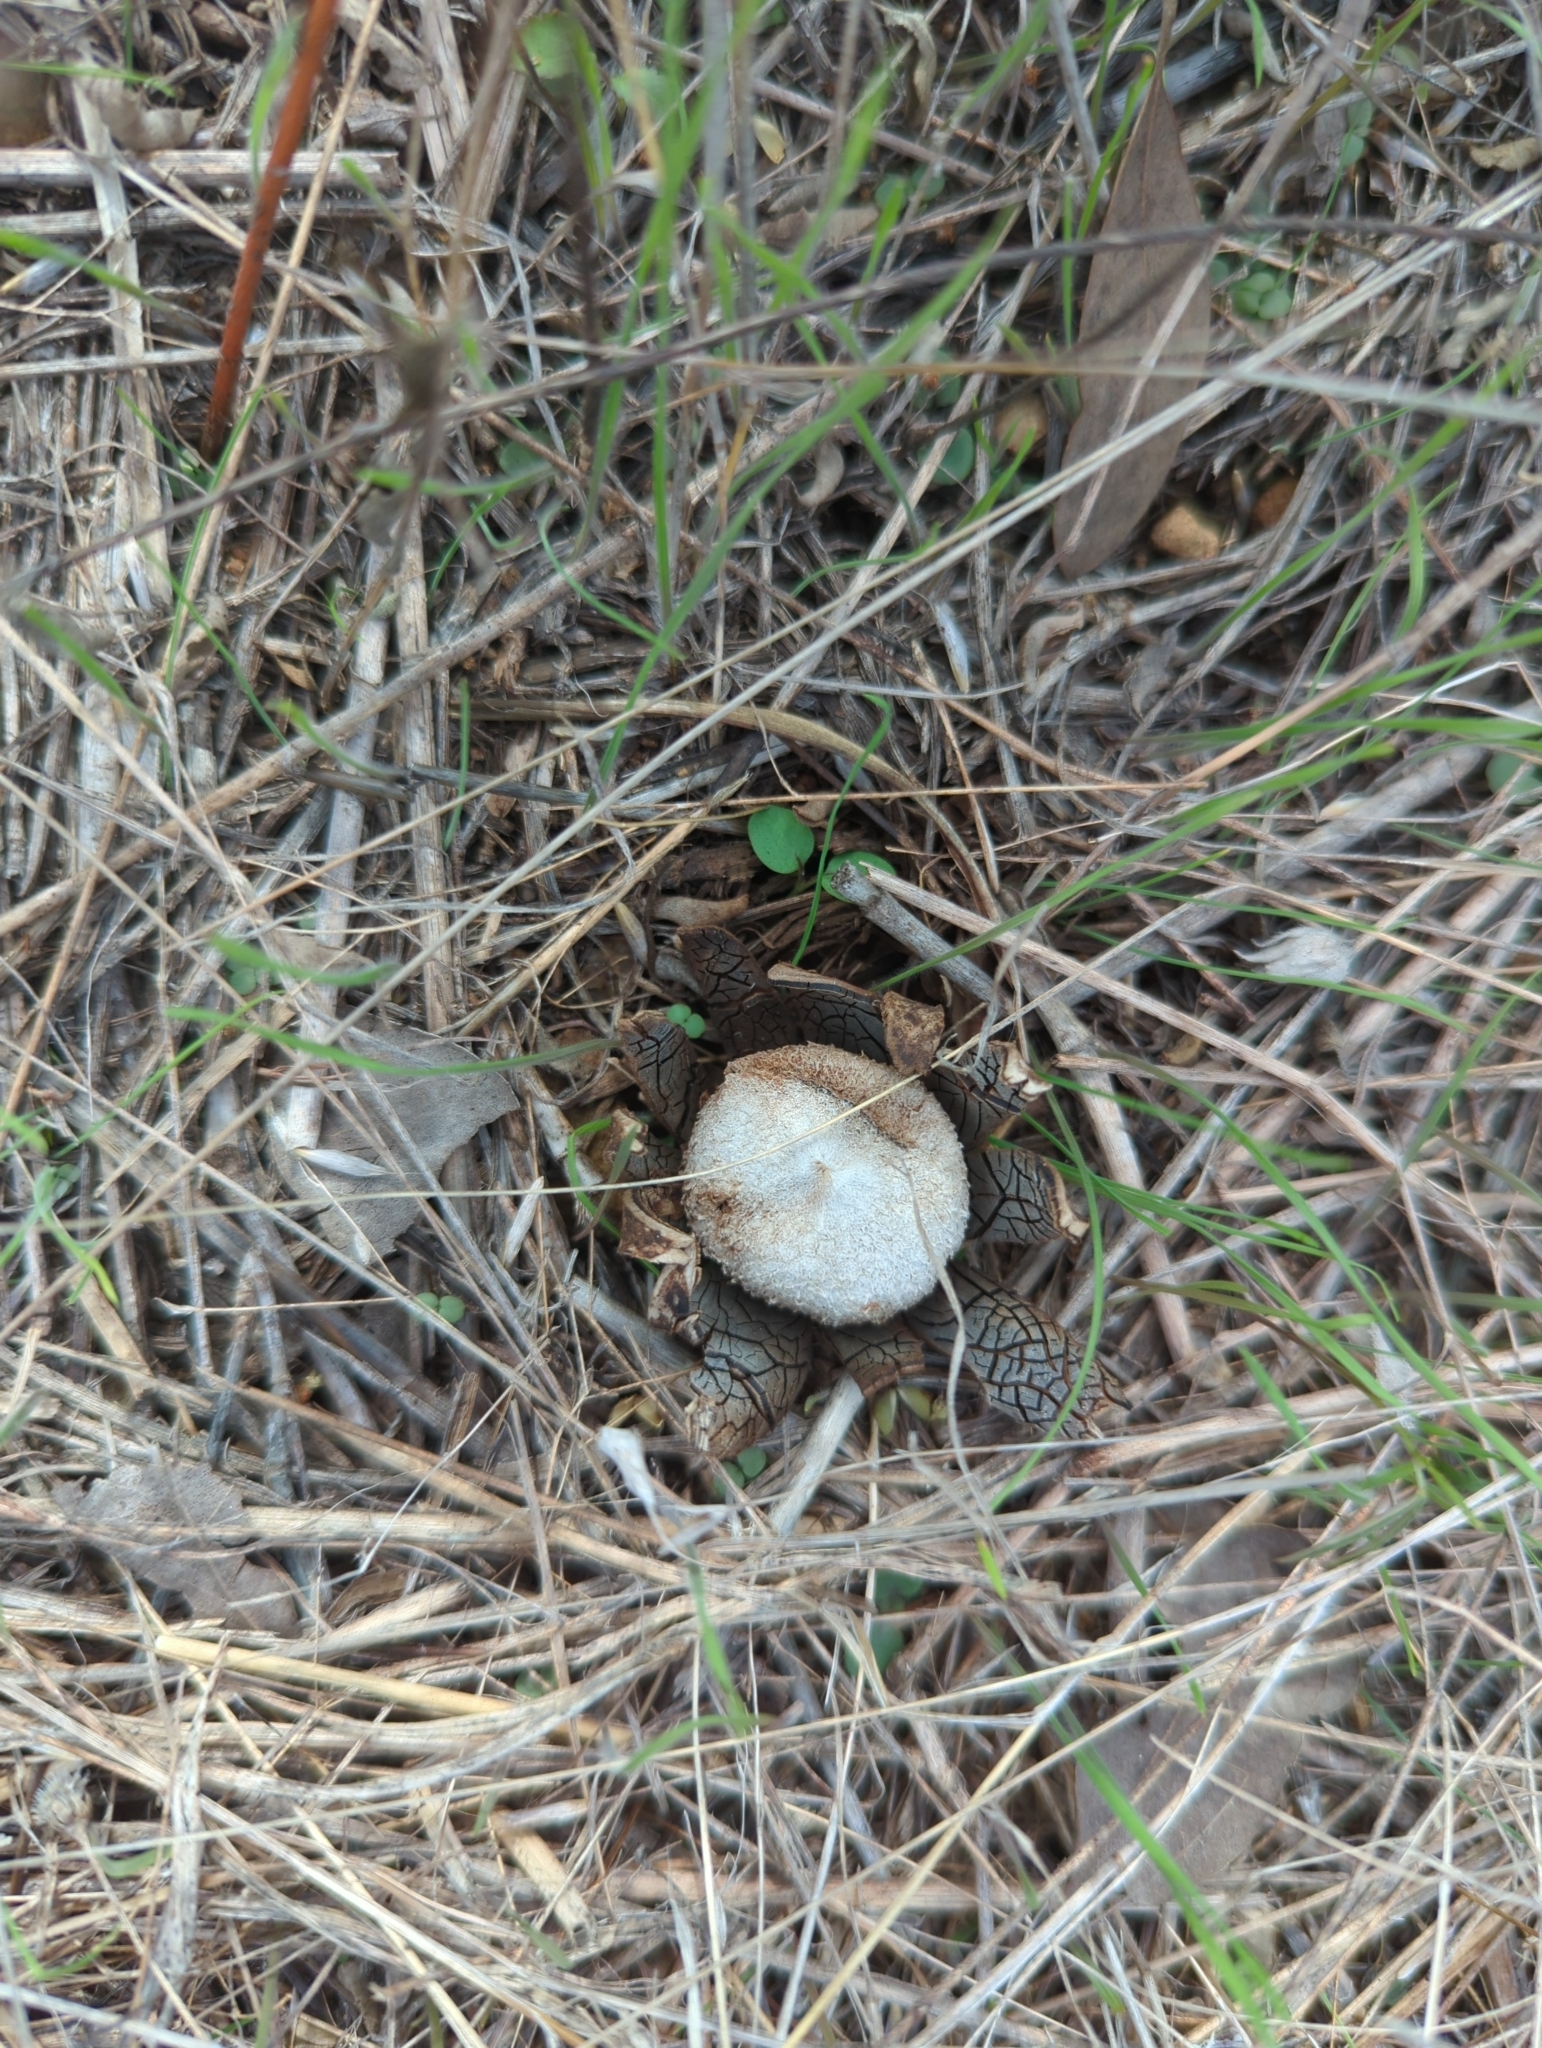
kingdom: Fungi
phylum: Basidiomycota
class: Agaricomycetes
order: Boletales
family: Diplocystidiaceae
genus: Astraeus
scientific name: Astraeus morganii
